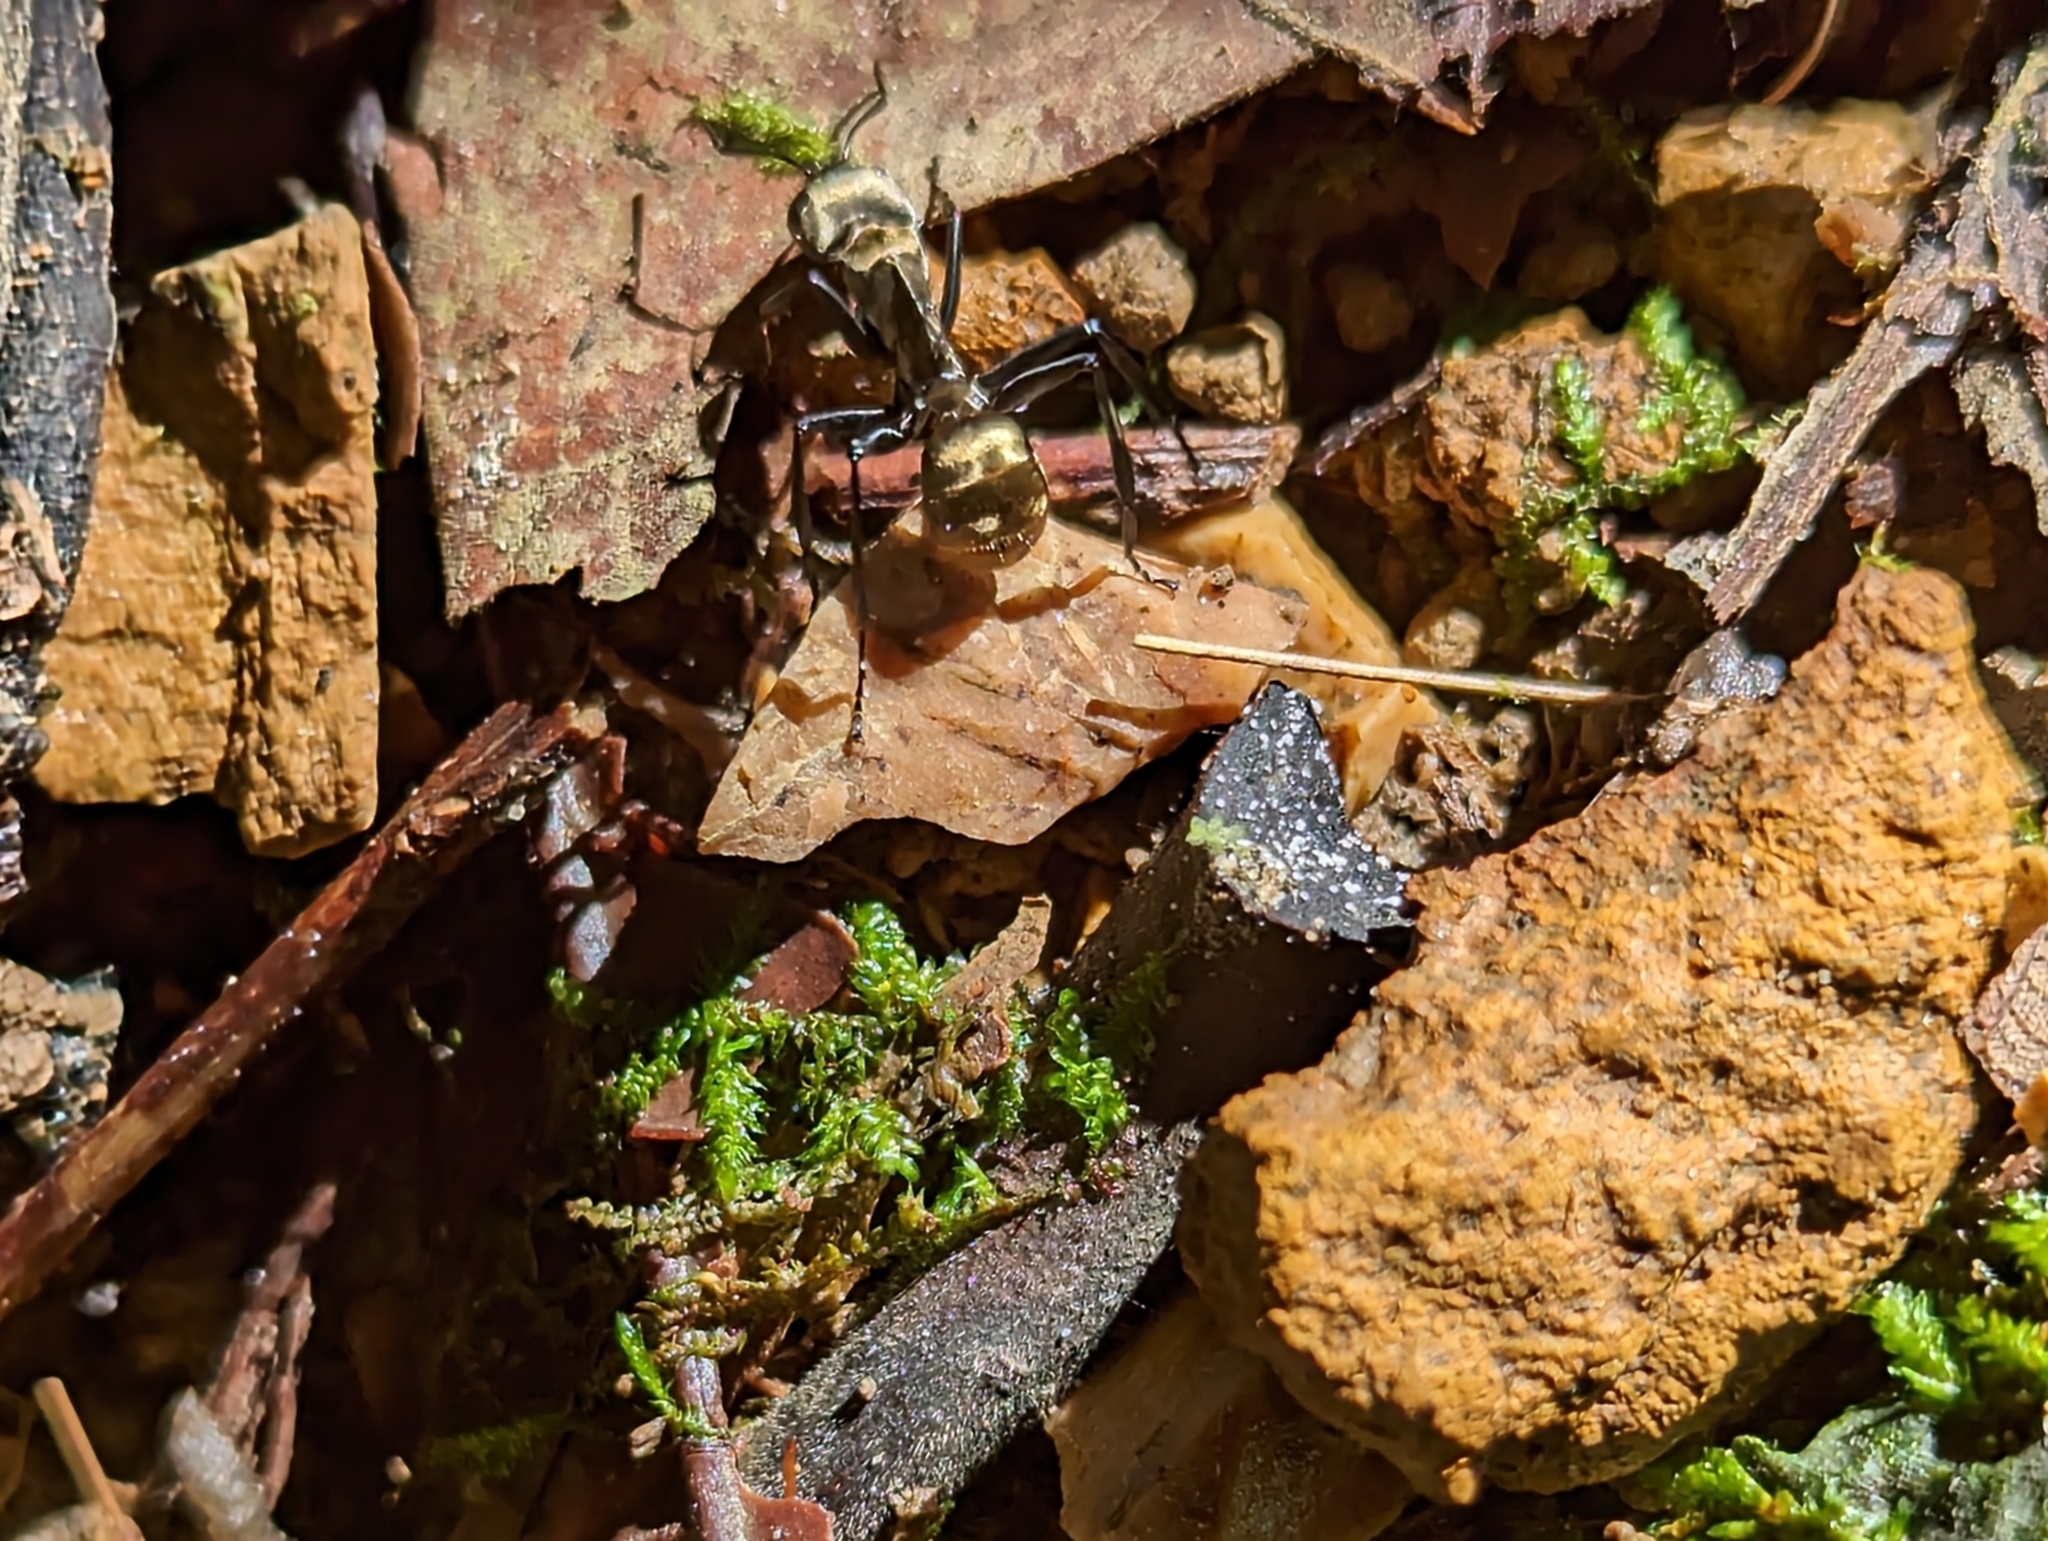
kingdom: Animalia
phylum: Arthropoda
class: Insecta
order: Hymenoptera
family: Formicidae
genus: Camponotus
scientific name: Camponotus sericeiventris
